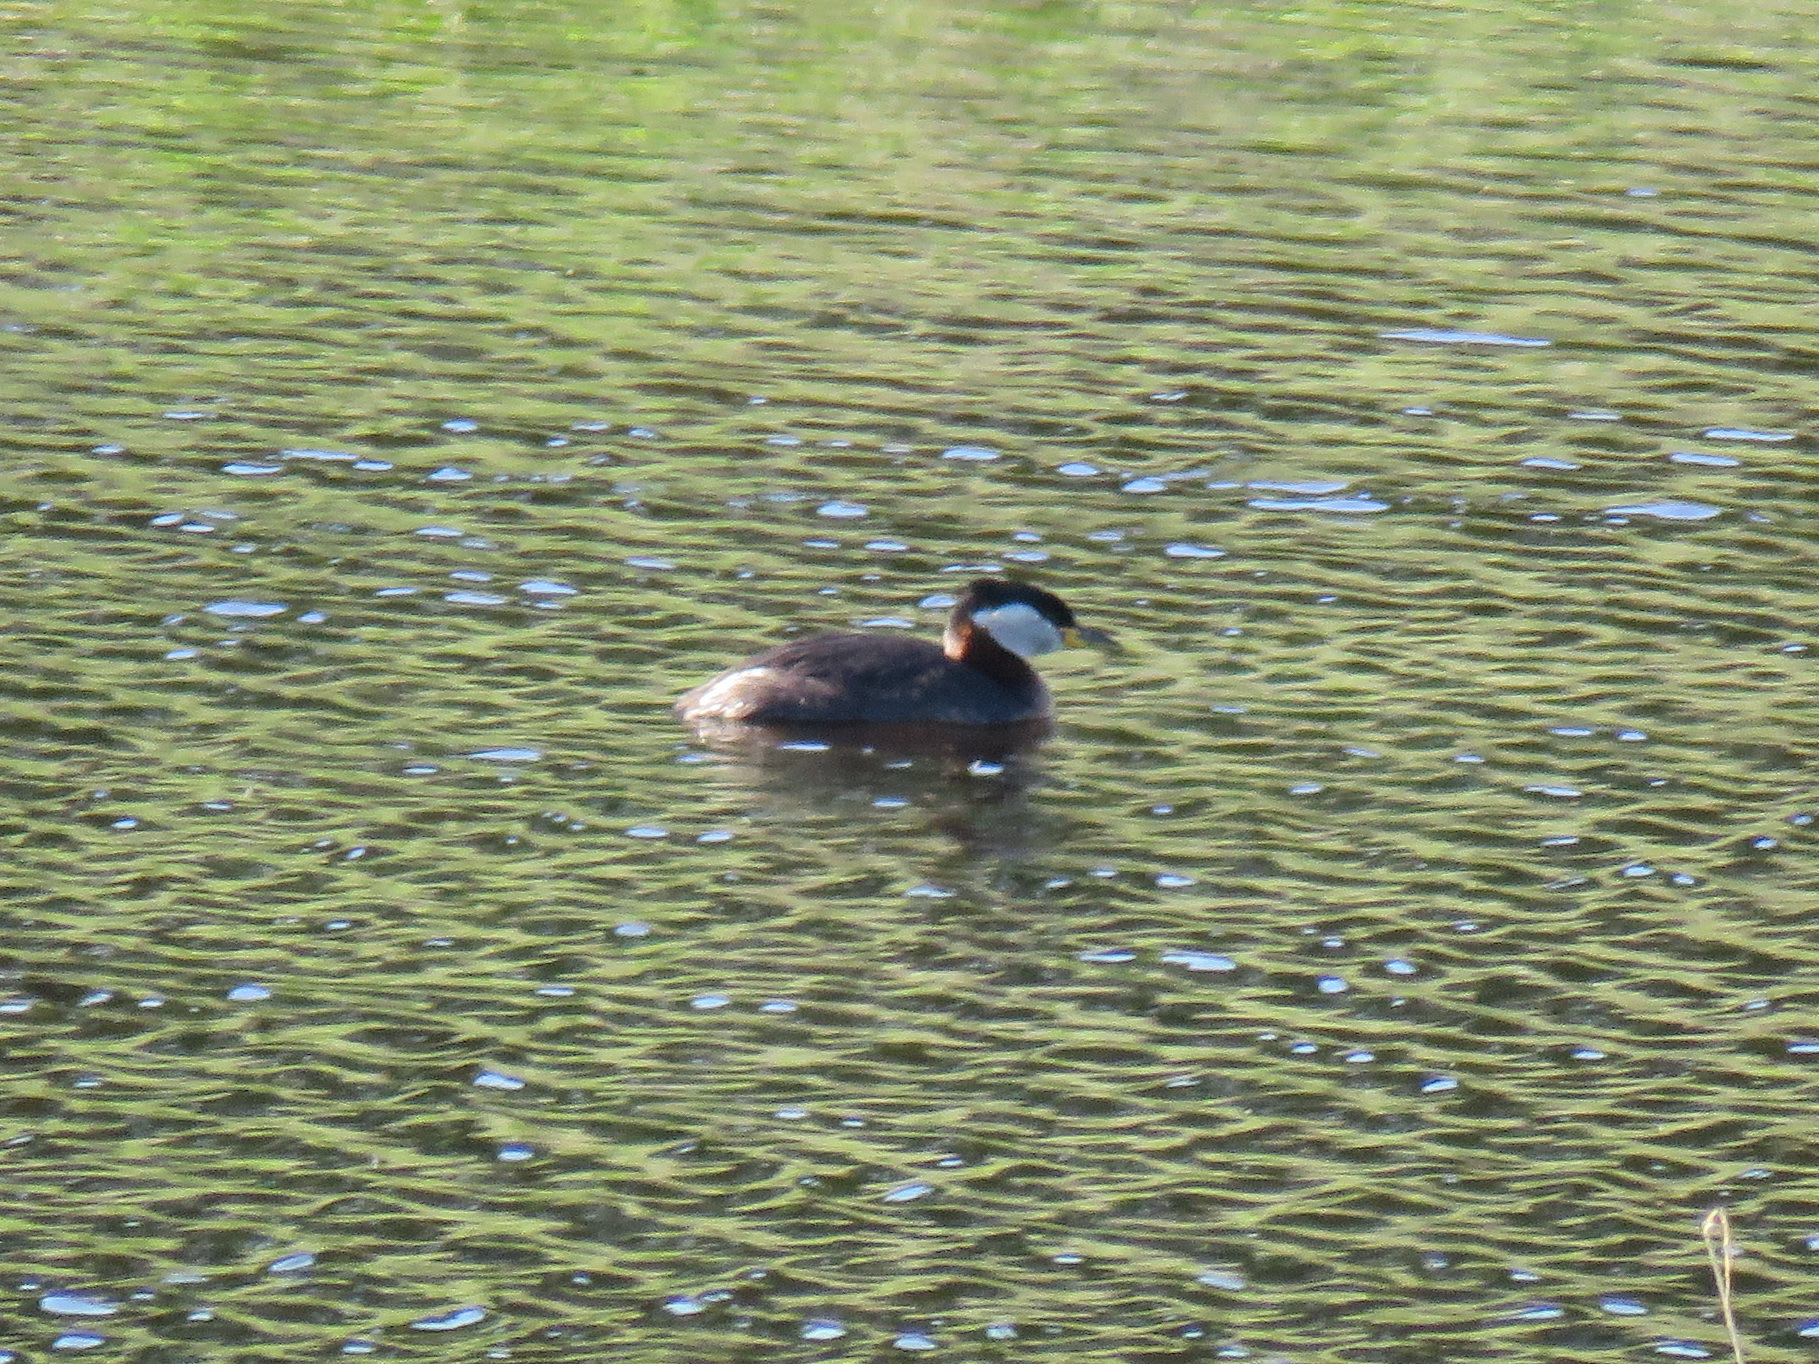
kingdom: Animalia
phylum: Chordata
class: Aves
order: Podicipediformes
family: Podicipedidae
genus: Podiceps
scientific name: Podiceps grisegena
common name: Red-necked grebe
